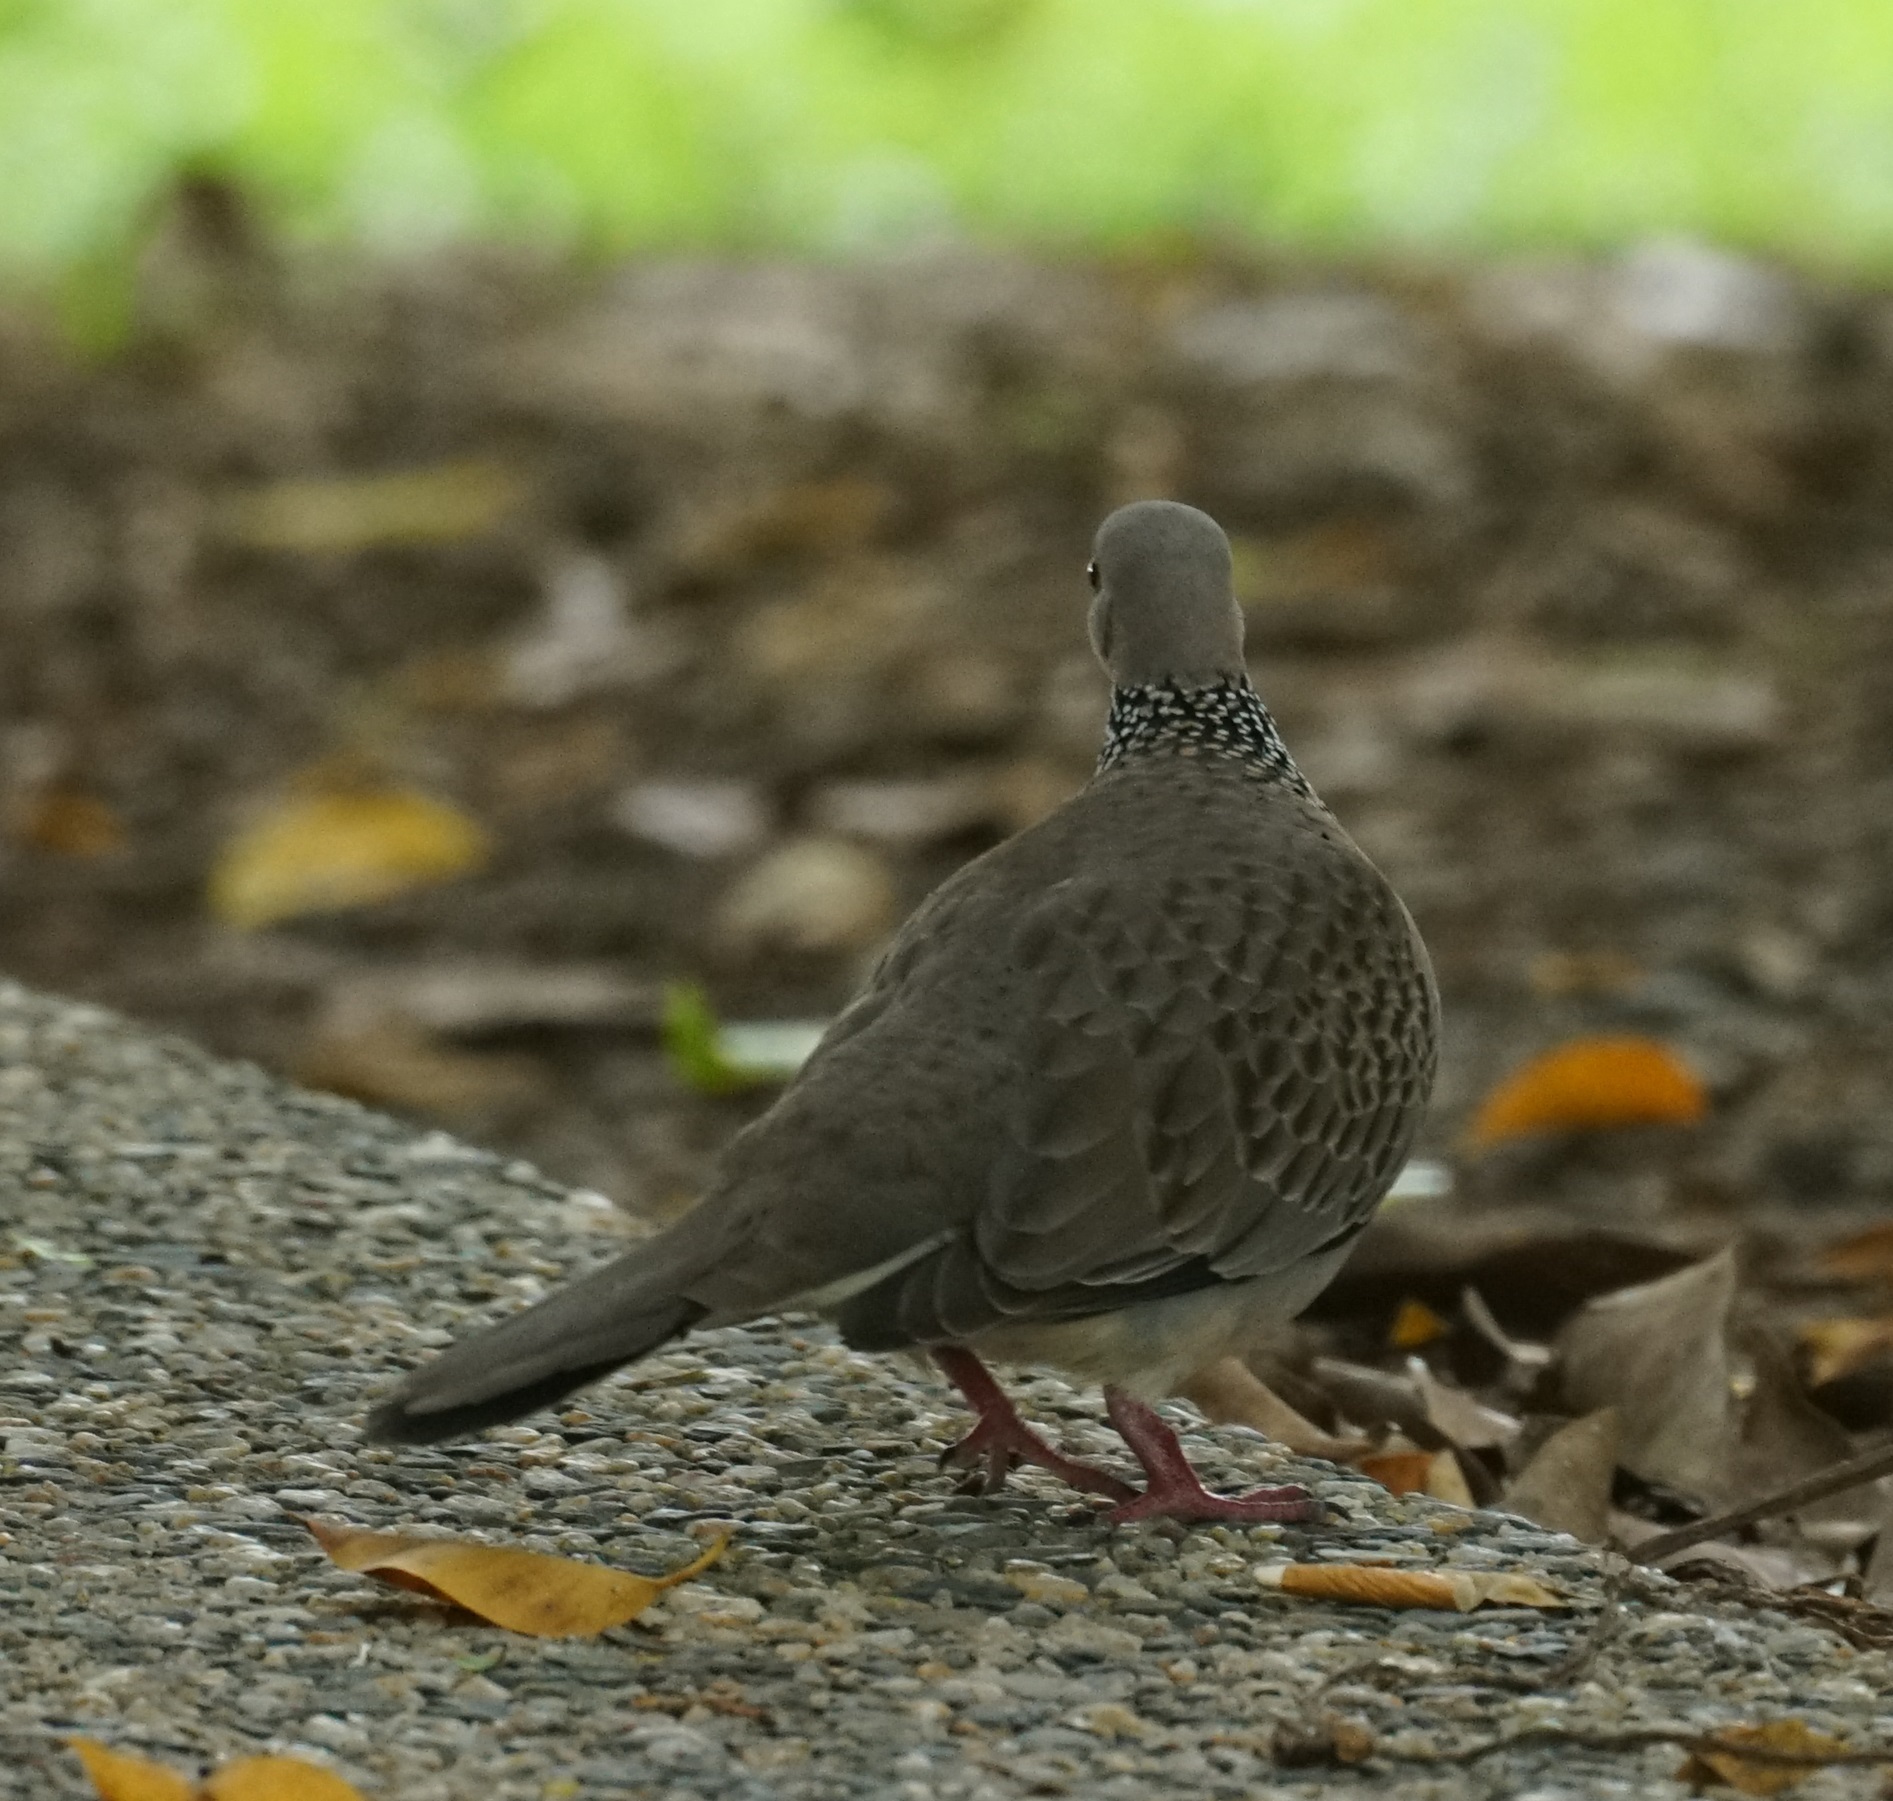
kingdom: Animalia
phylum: Chordata
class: Aves
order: Columbiformes
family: Columbidae
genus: Spilopelia
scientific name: Spilopelia chinensis
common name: Spotted dove
